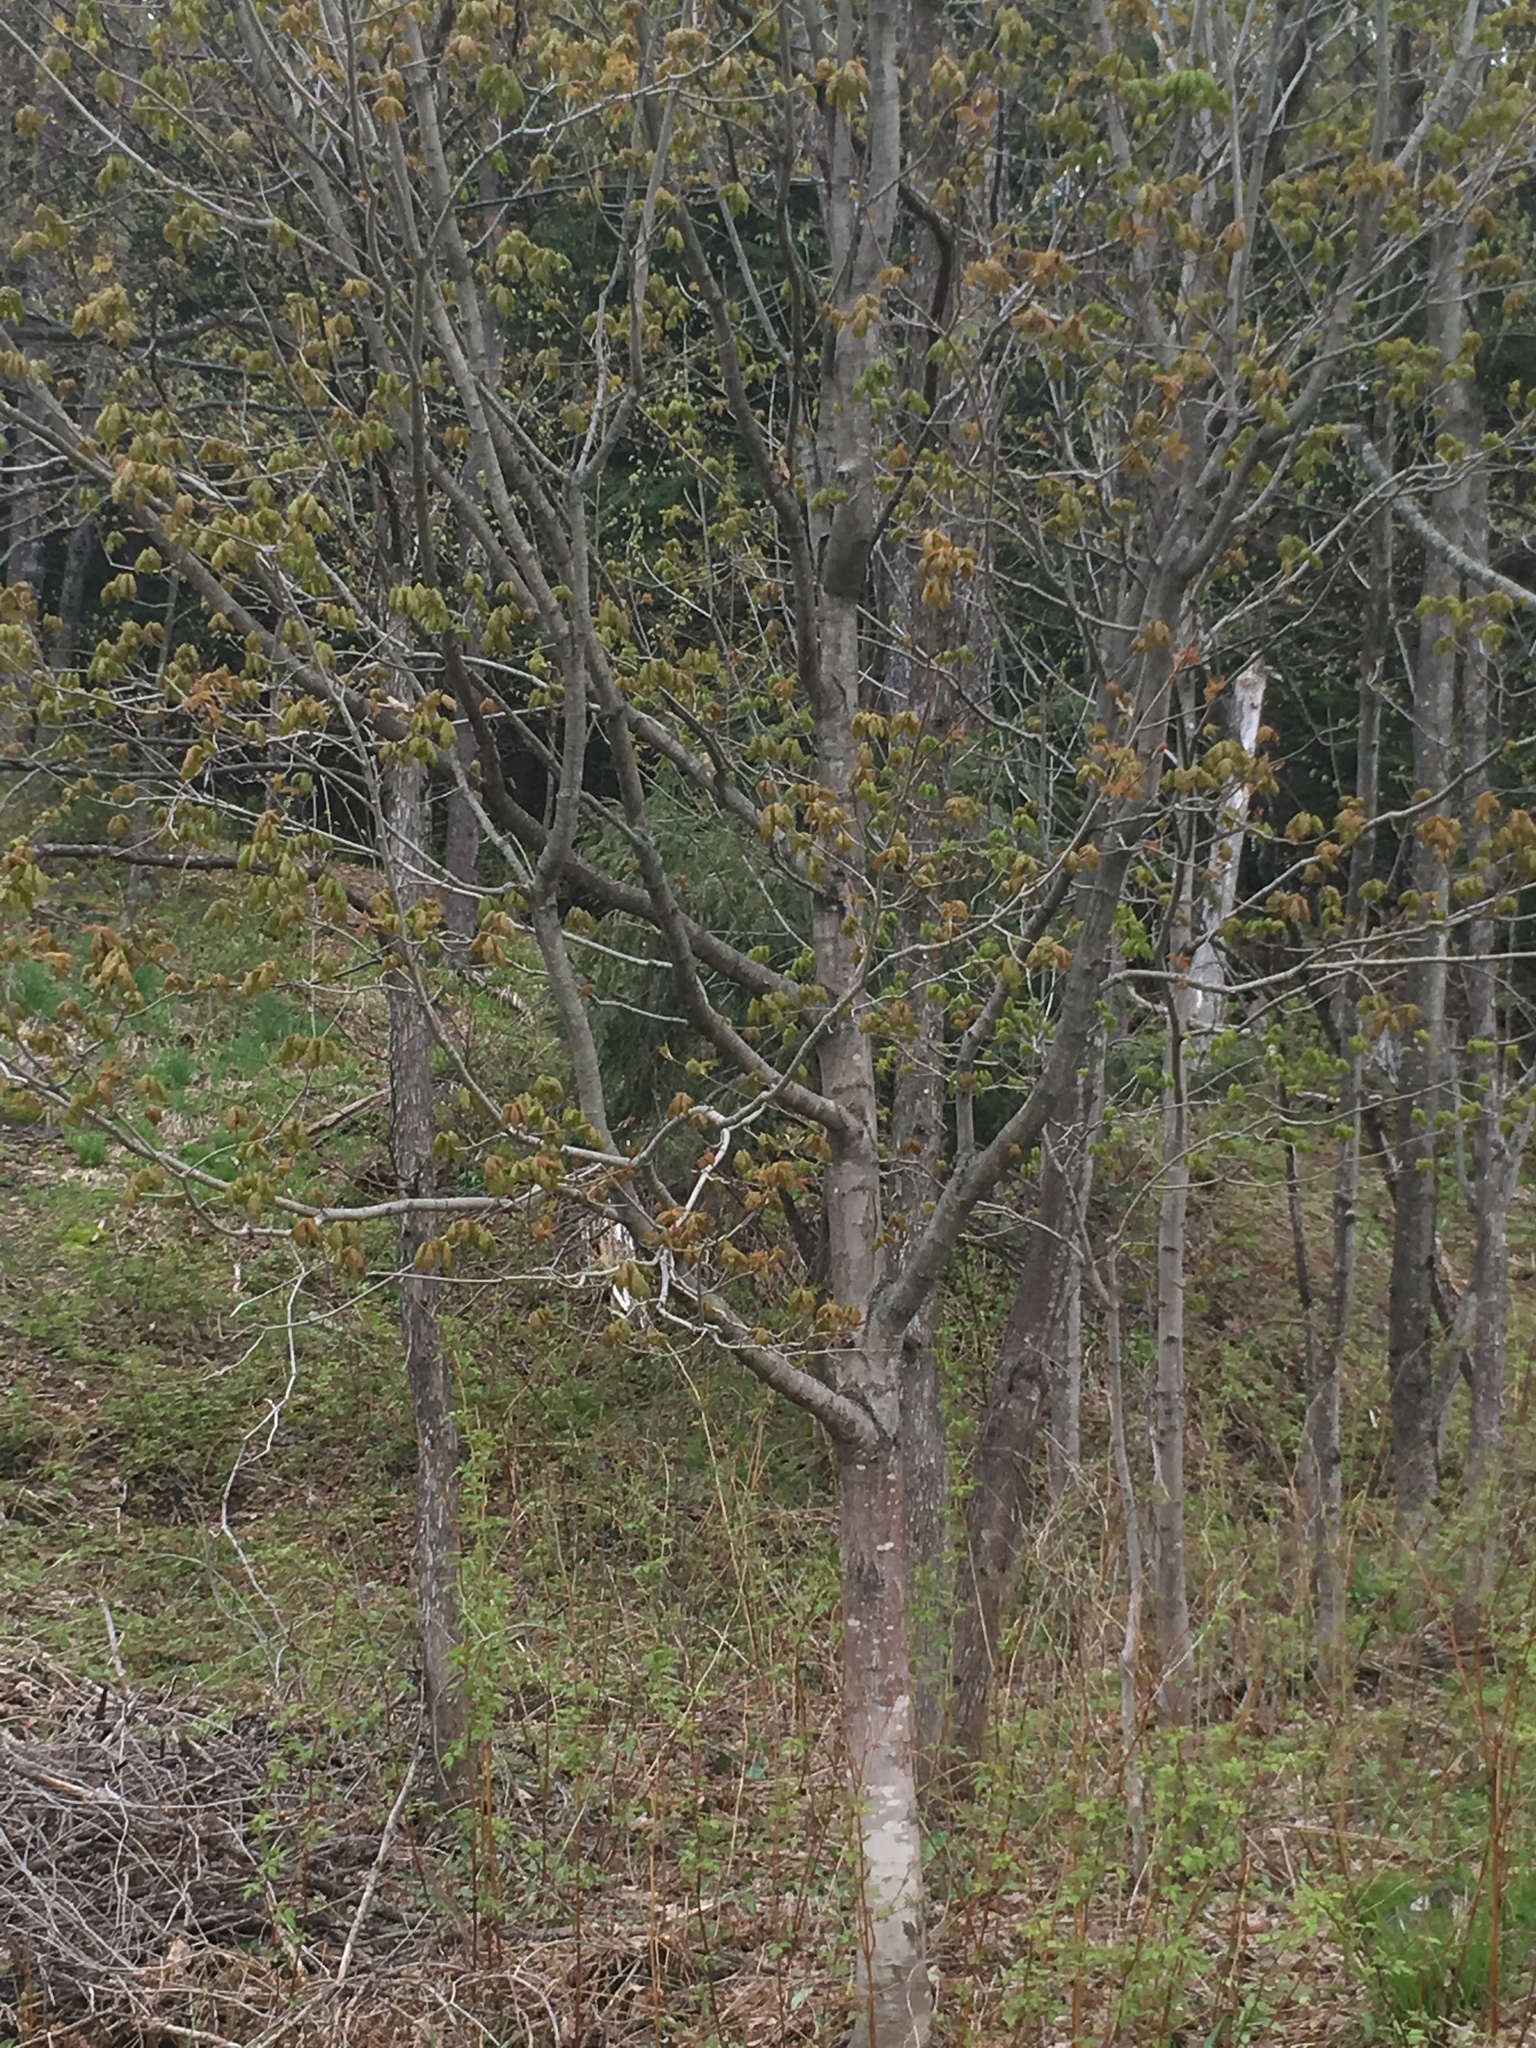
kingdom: Plantae
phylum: Tracheophyta
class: Magnoliopsida
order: Sapindales
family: Sapindaceae
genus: Acer
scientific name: Acer saccharum
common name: Sugar maple
